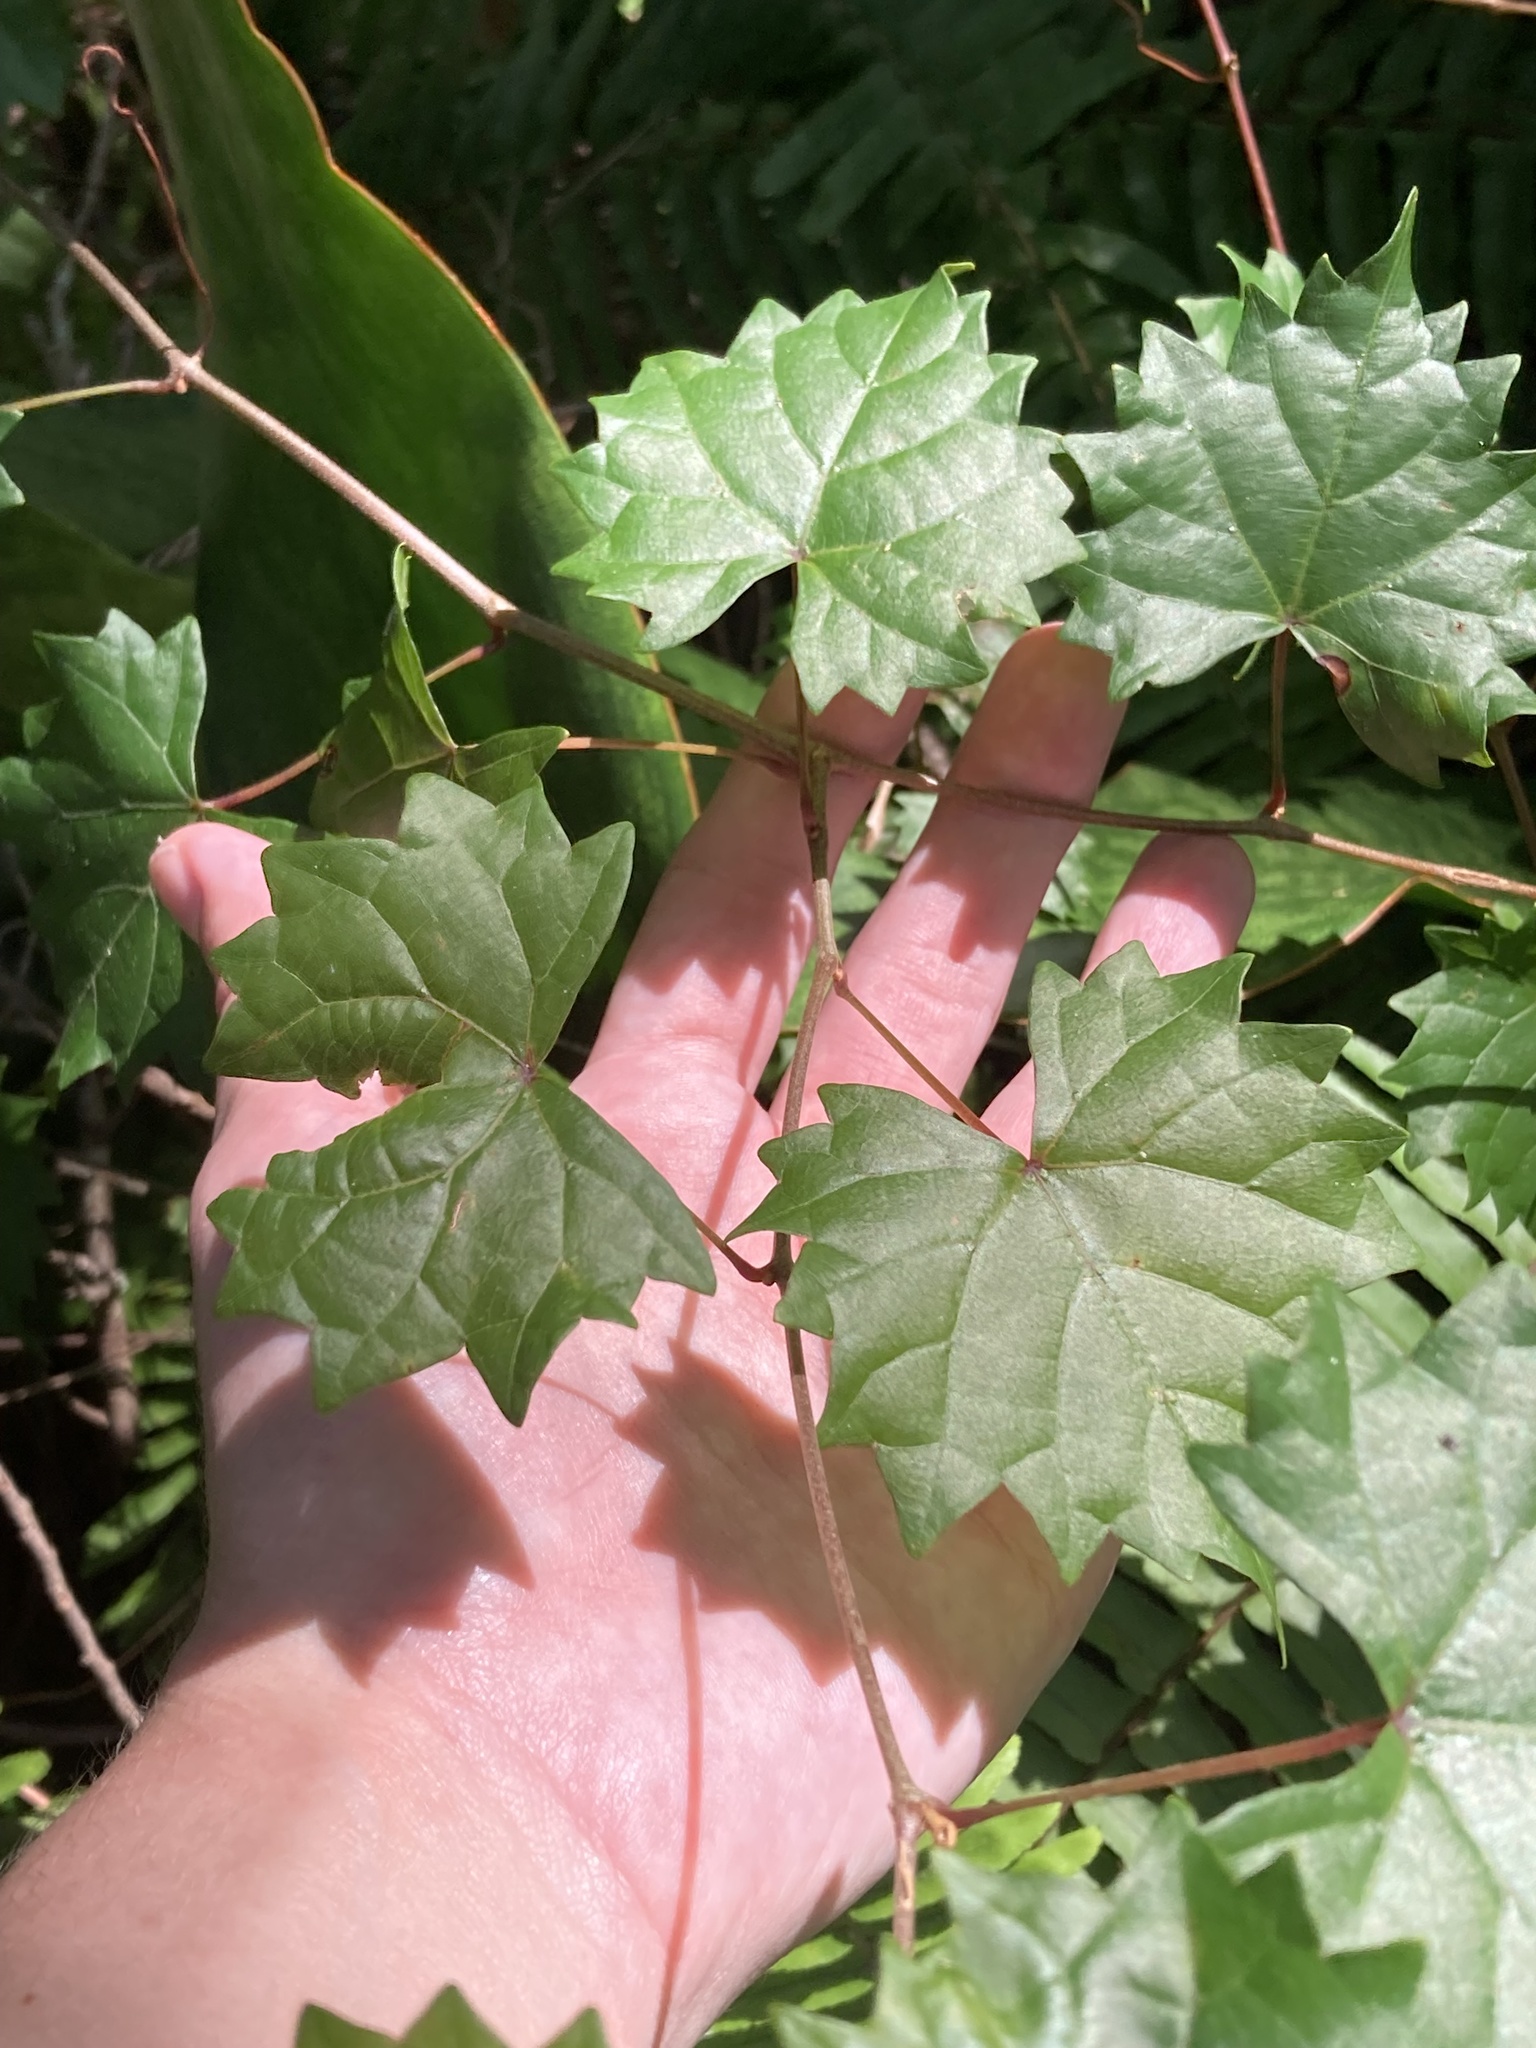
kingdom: Plantae
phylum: Tracheophyta
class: Magnoliopsida
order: Vitales
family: Vitaceae
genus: Vitis
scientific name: Vitis rotundifolia
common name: Muscadine grape
